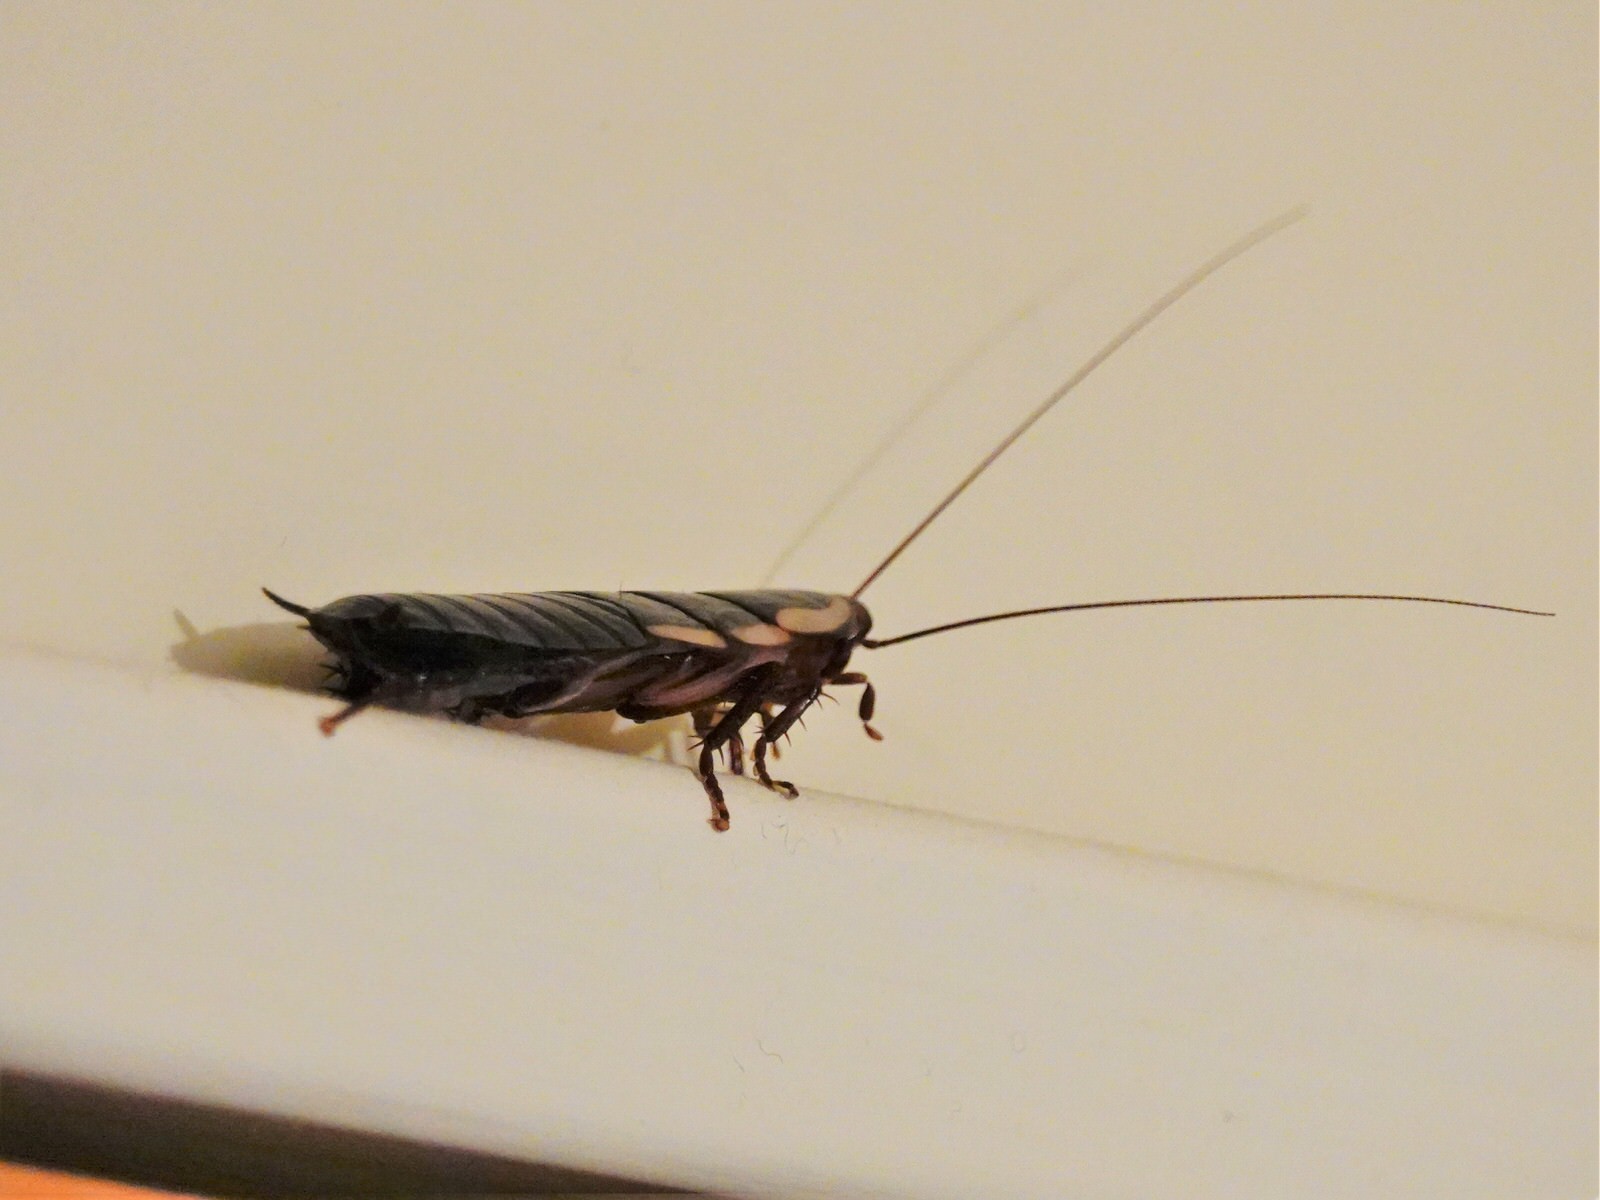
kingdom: Animalia
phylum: Arthropoda
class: Insecta
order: Blattodea
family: Blattidae
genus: Drymaplaneta
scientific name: Drymaplaneta semivitta
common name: Gisborne cockroach
